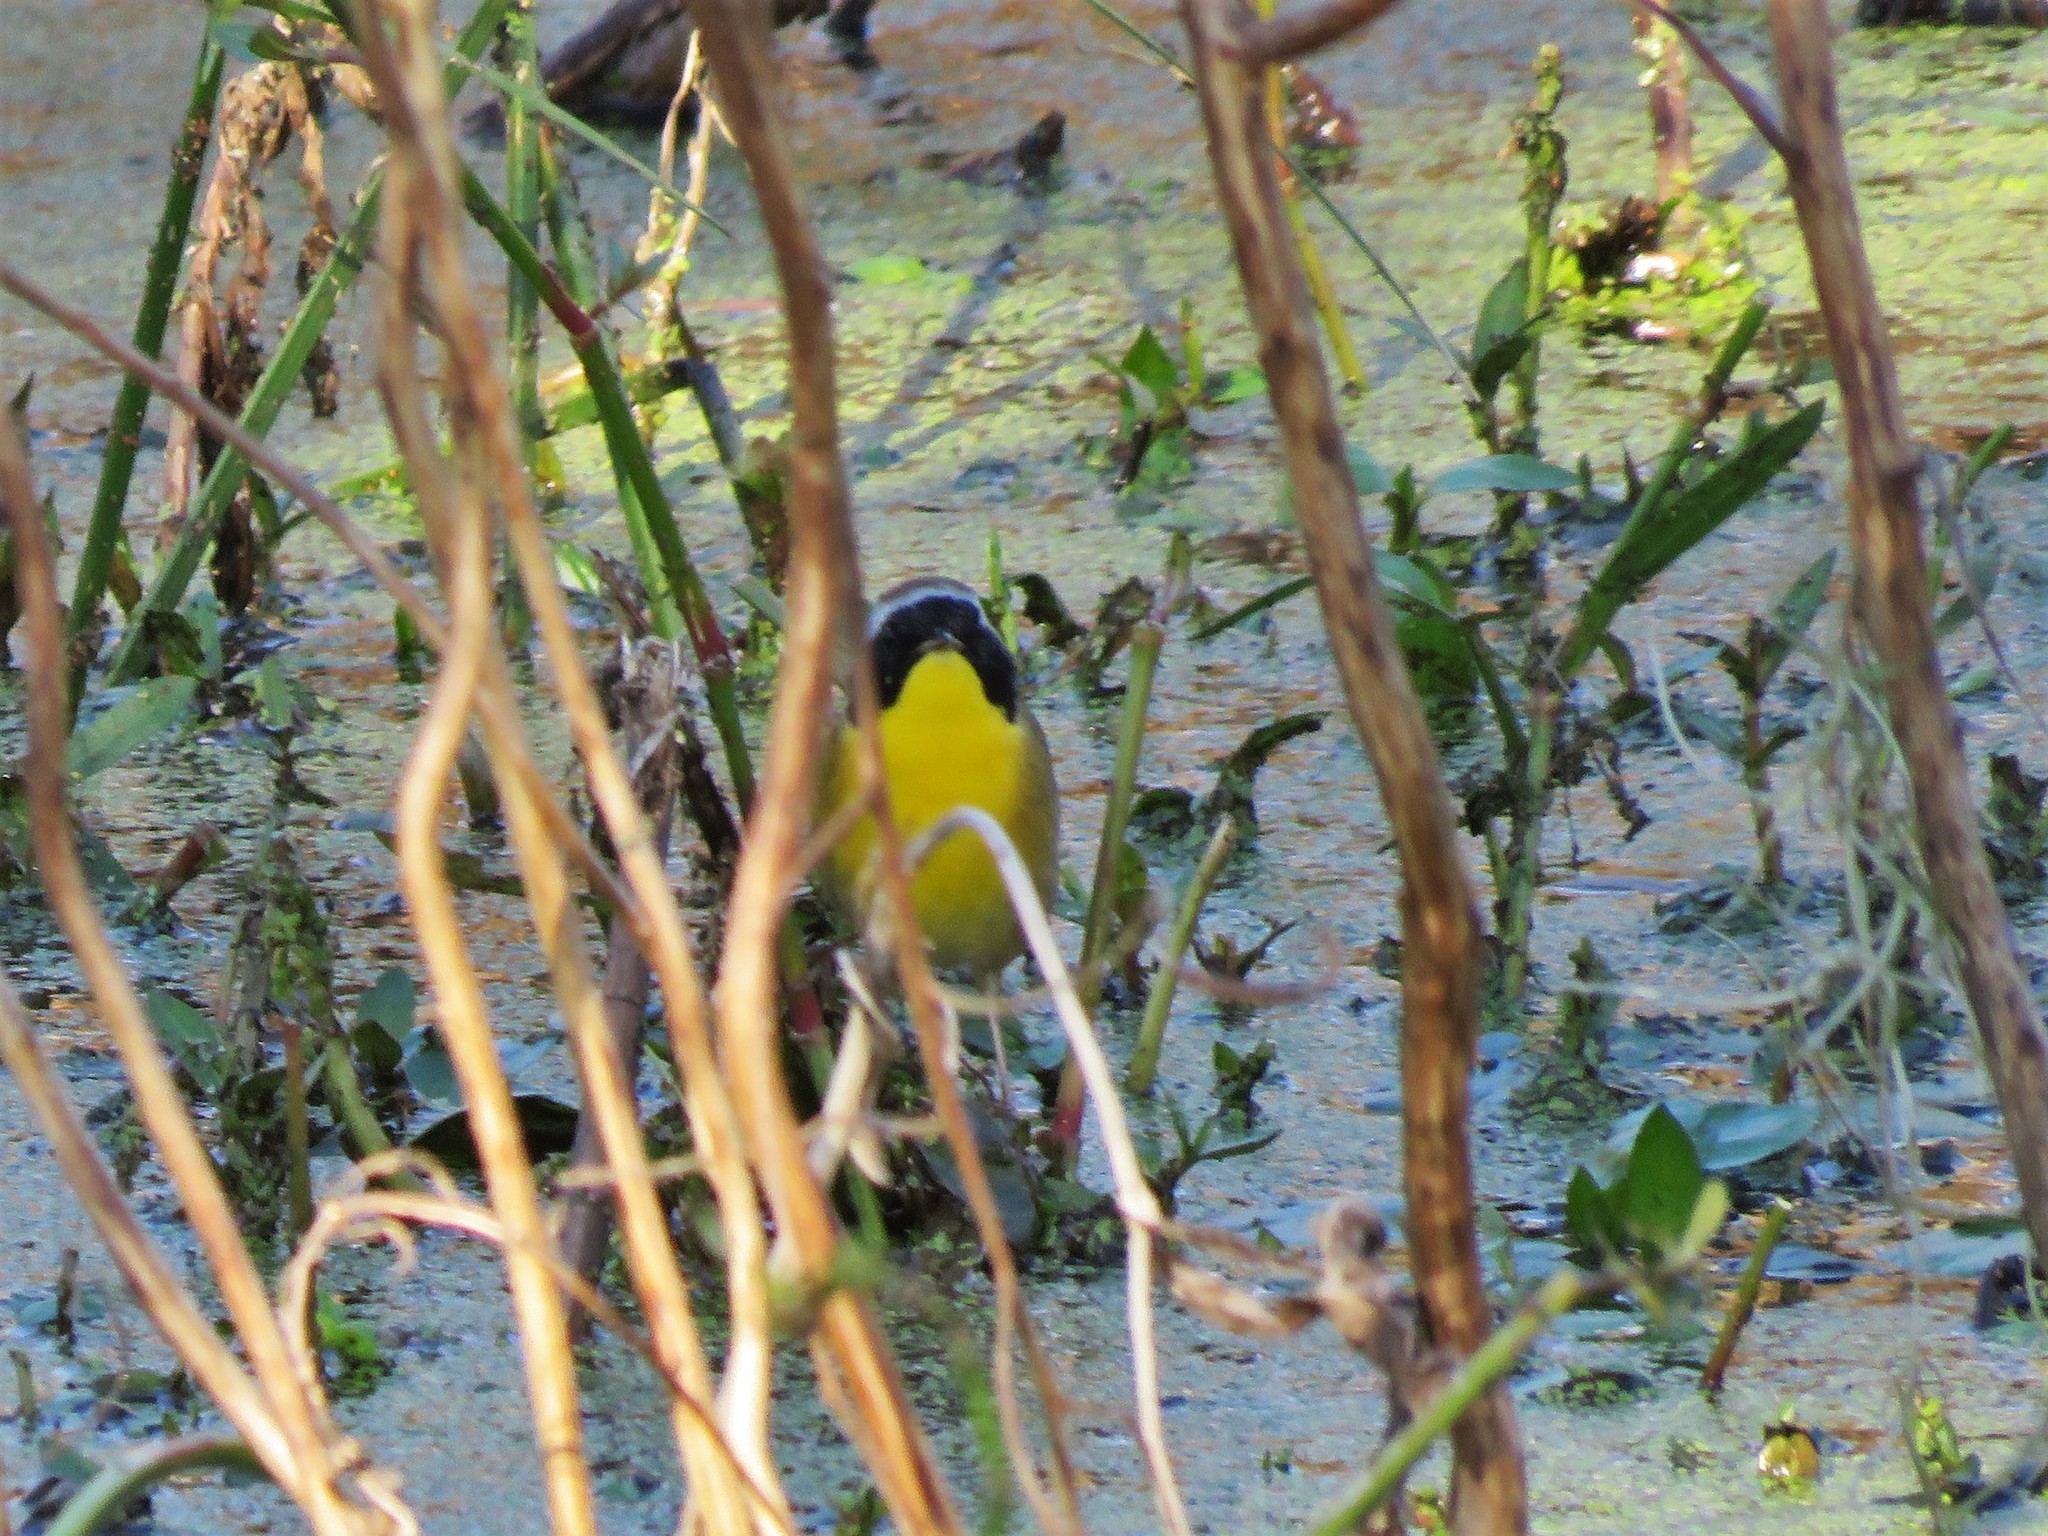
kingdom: Animalia
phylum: Chordata
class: Aves
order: Passeriformes
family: Parulidae
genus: Geothlypis
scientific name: Geothlypis trichas
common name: Common yellowthroat
